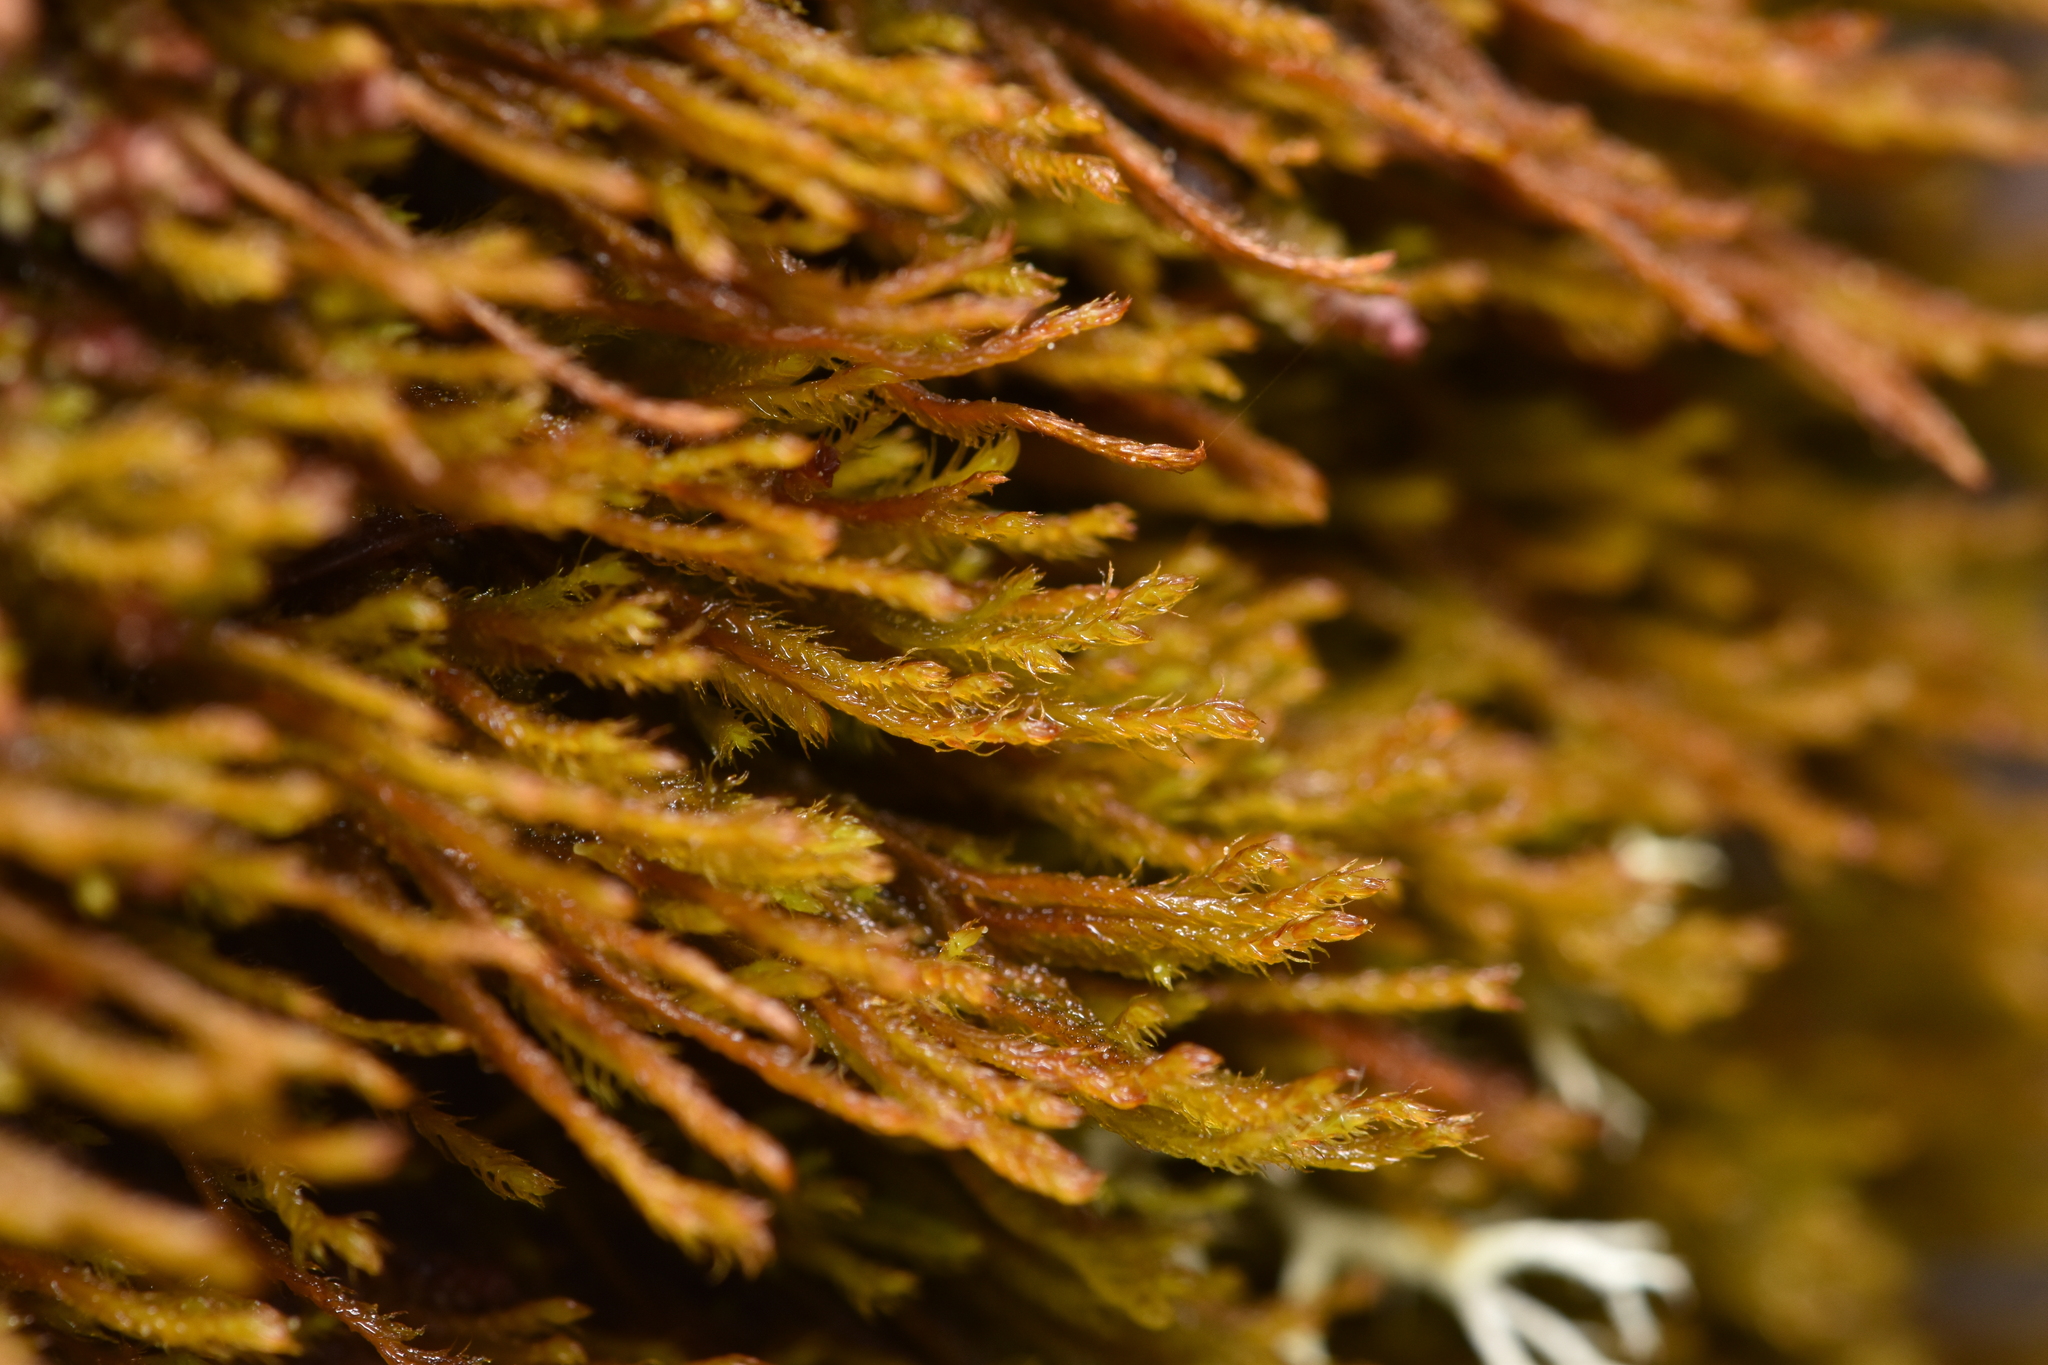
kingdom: Plantae
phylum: Marchantiophyta
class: Jungermanniopsida
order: Jungermanniales
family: Herbertaceae
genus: Herbertus
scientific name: Herbertus aduncus
